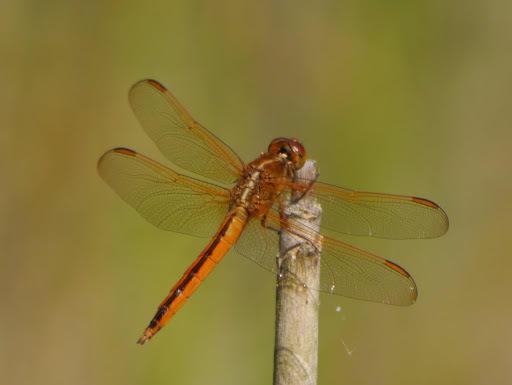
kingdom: Animalia
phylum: Arthropoda
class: Insecta
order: Odonata
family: Libellulidae
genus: Libellula
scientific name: Libellula needhami
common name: Needham's skimmer
